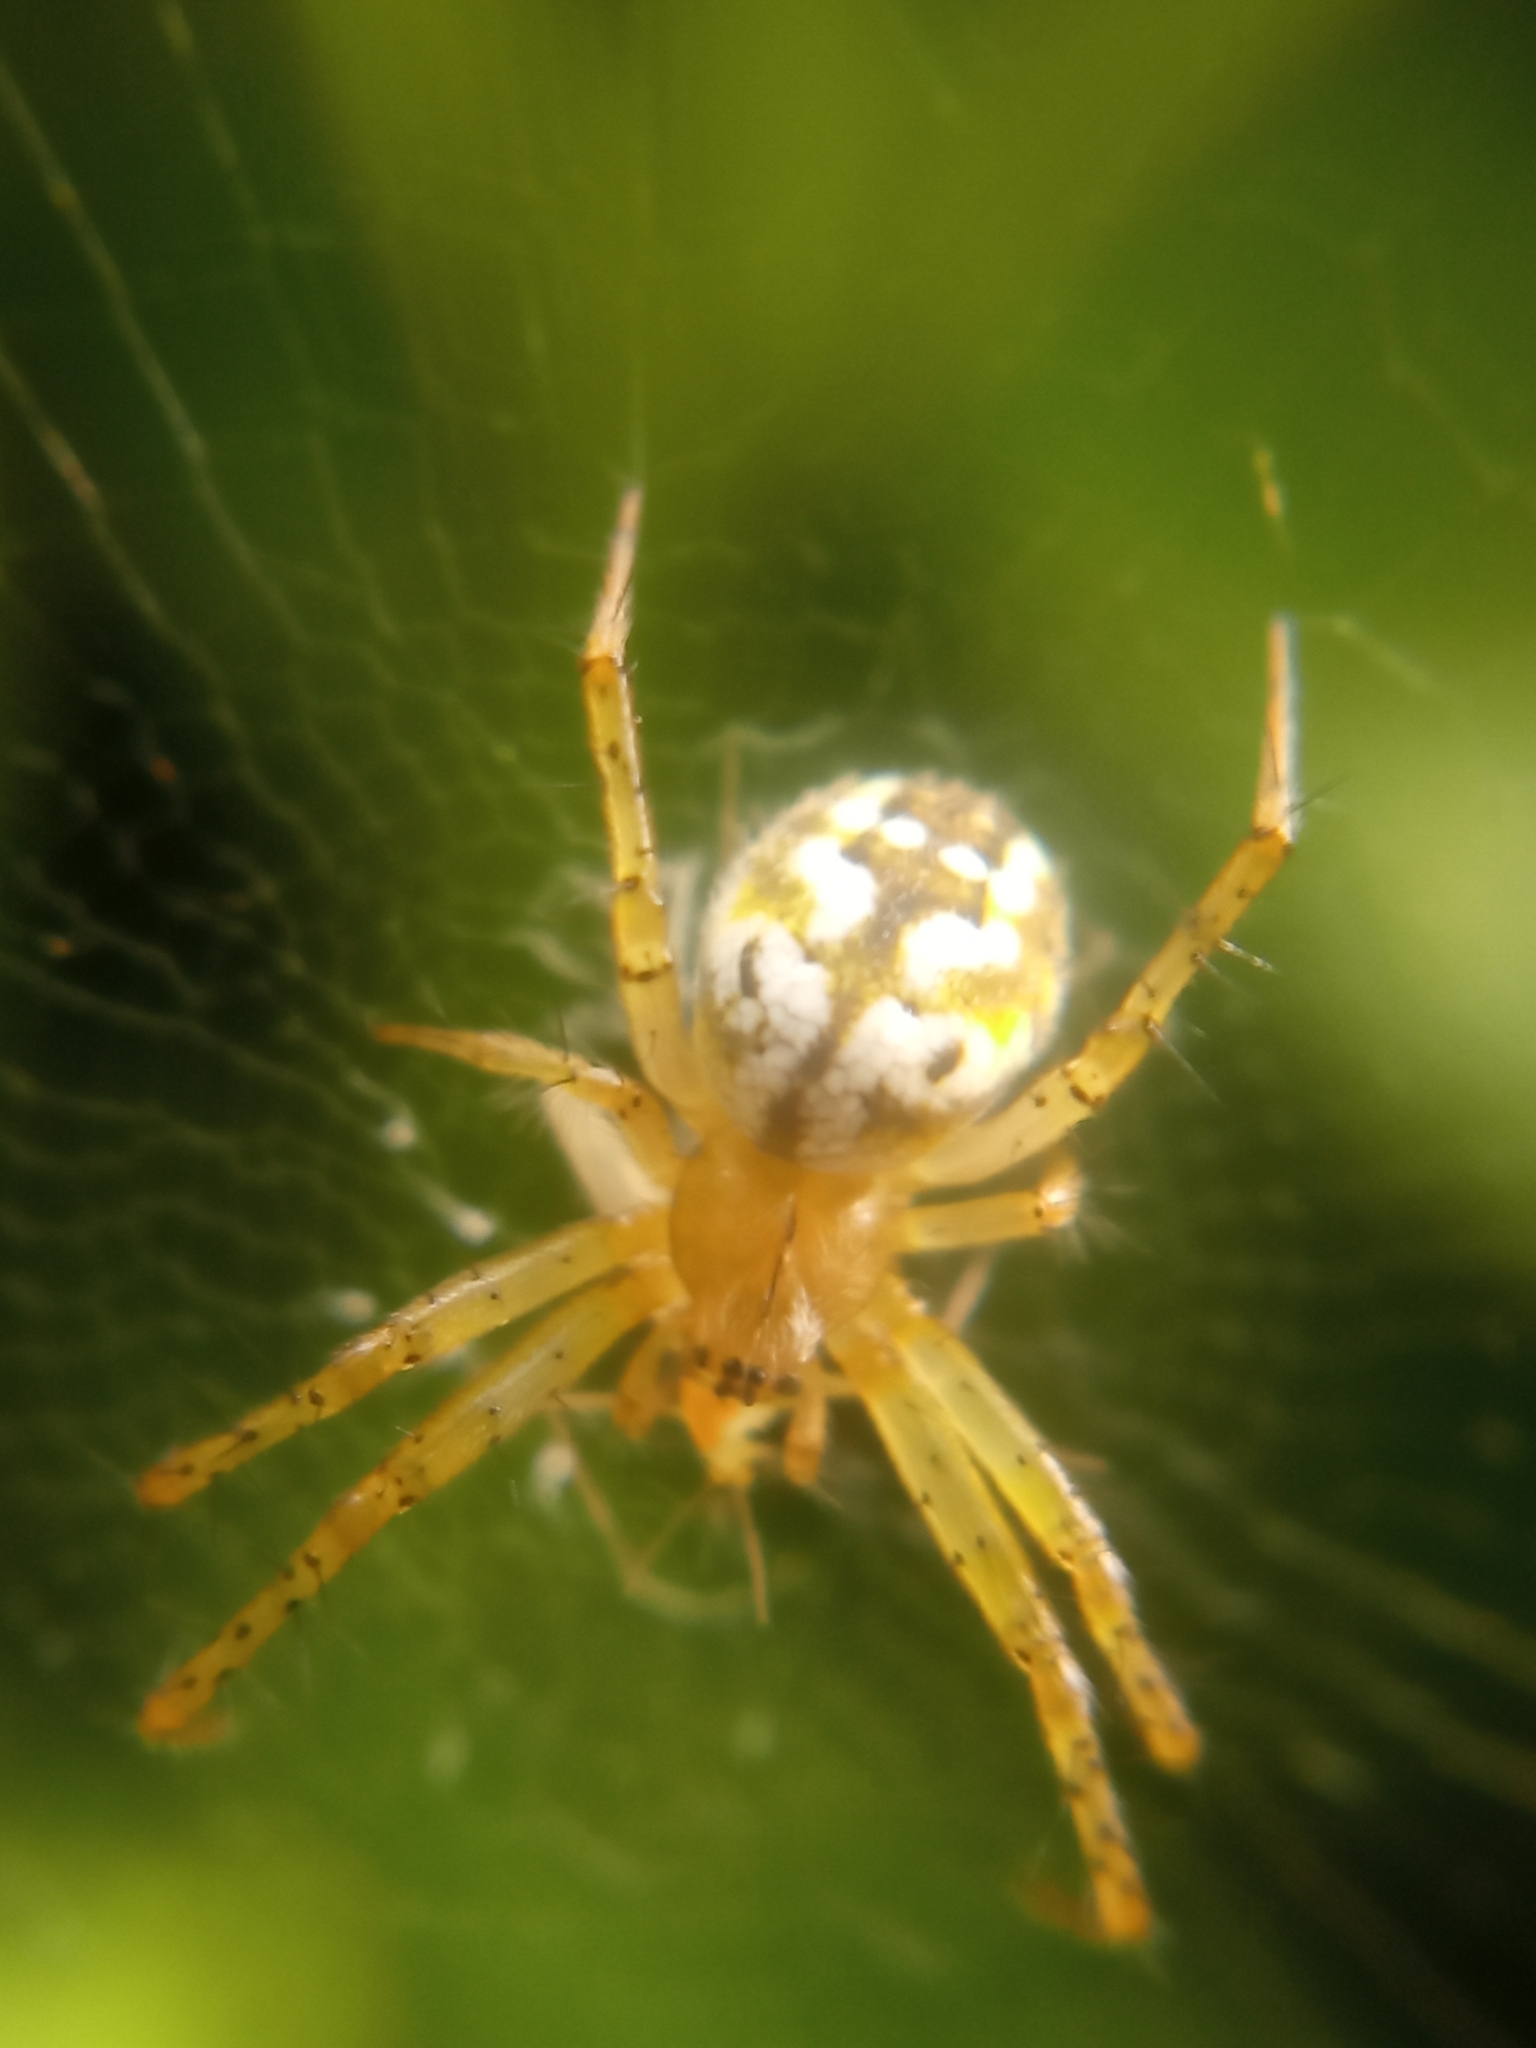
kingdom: Animalia
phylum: Arthropoda
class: Arachnida
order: Araneae
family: Araneidae
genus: Mangora
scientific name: Mangora acalypha
